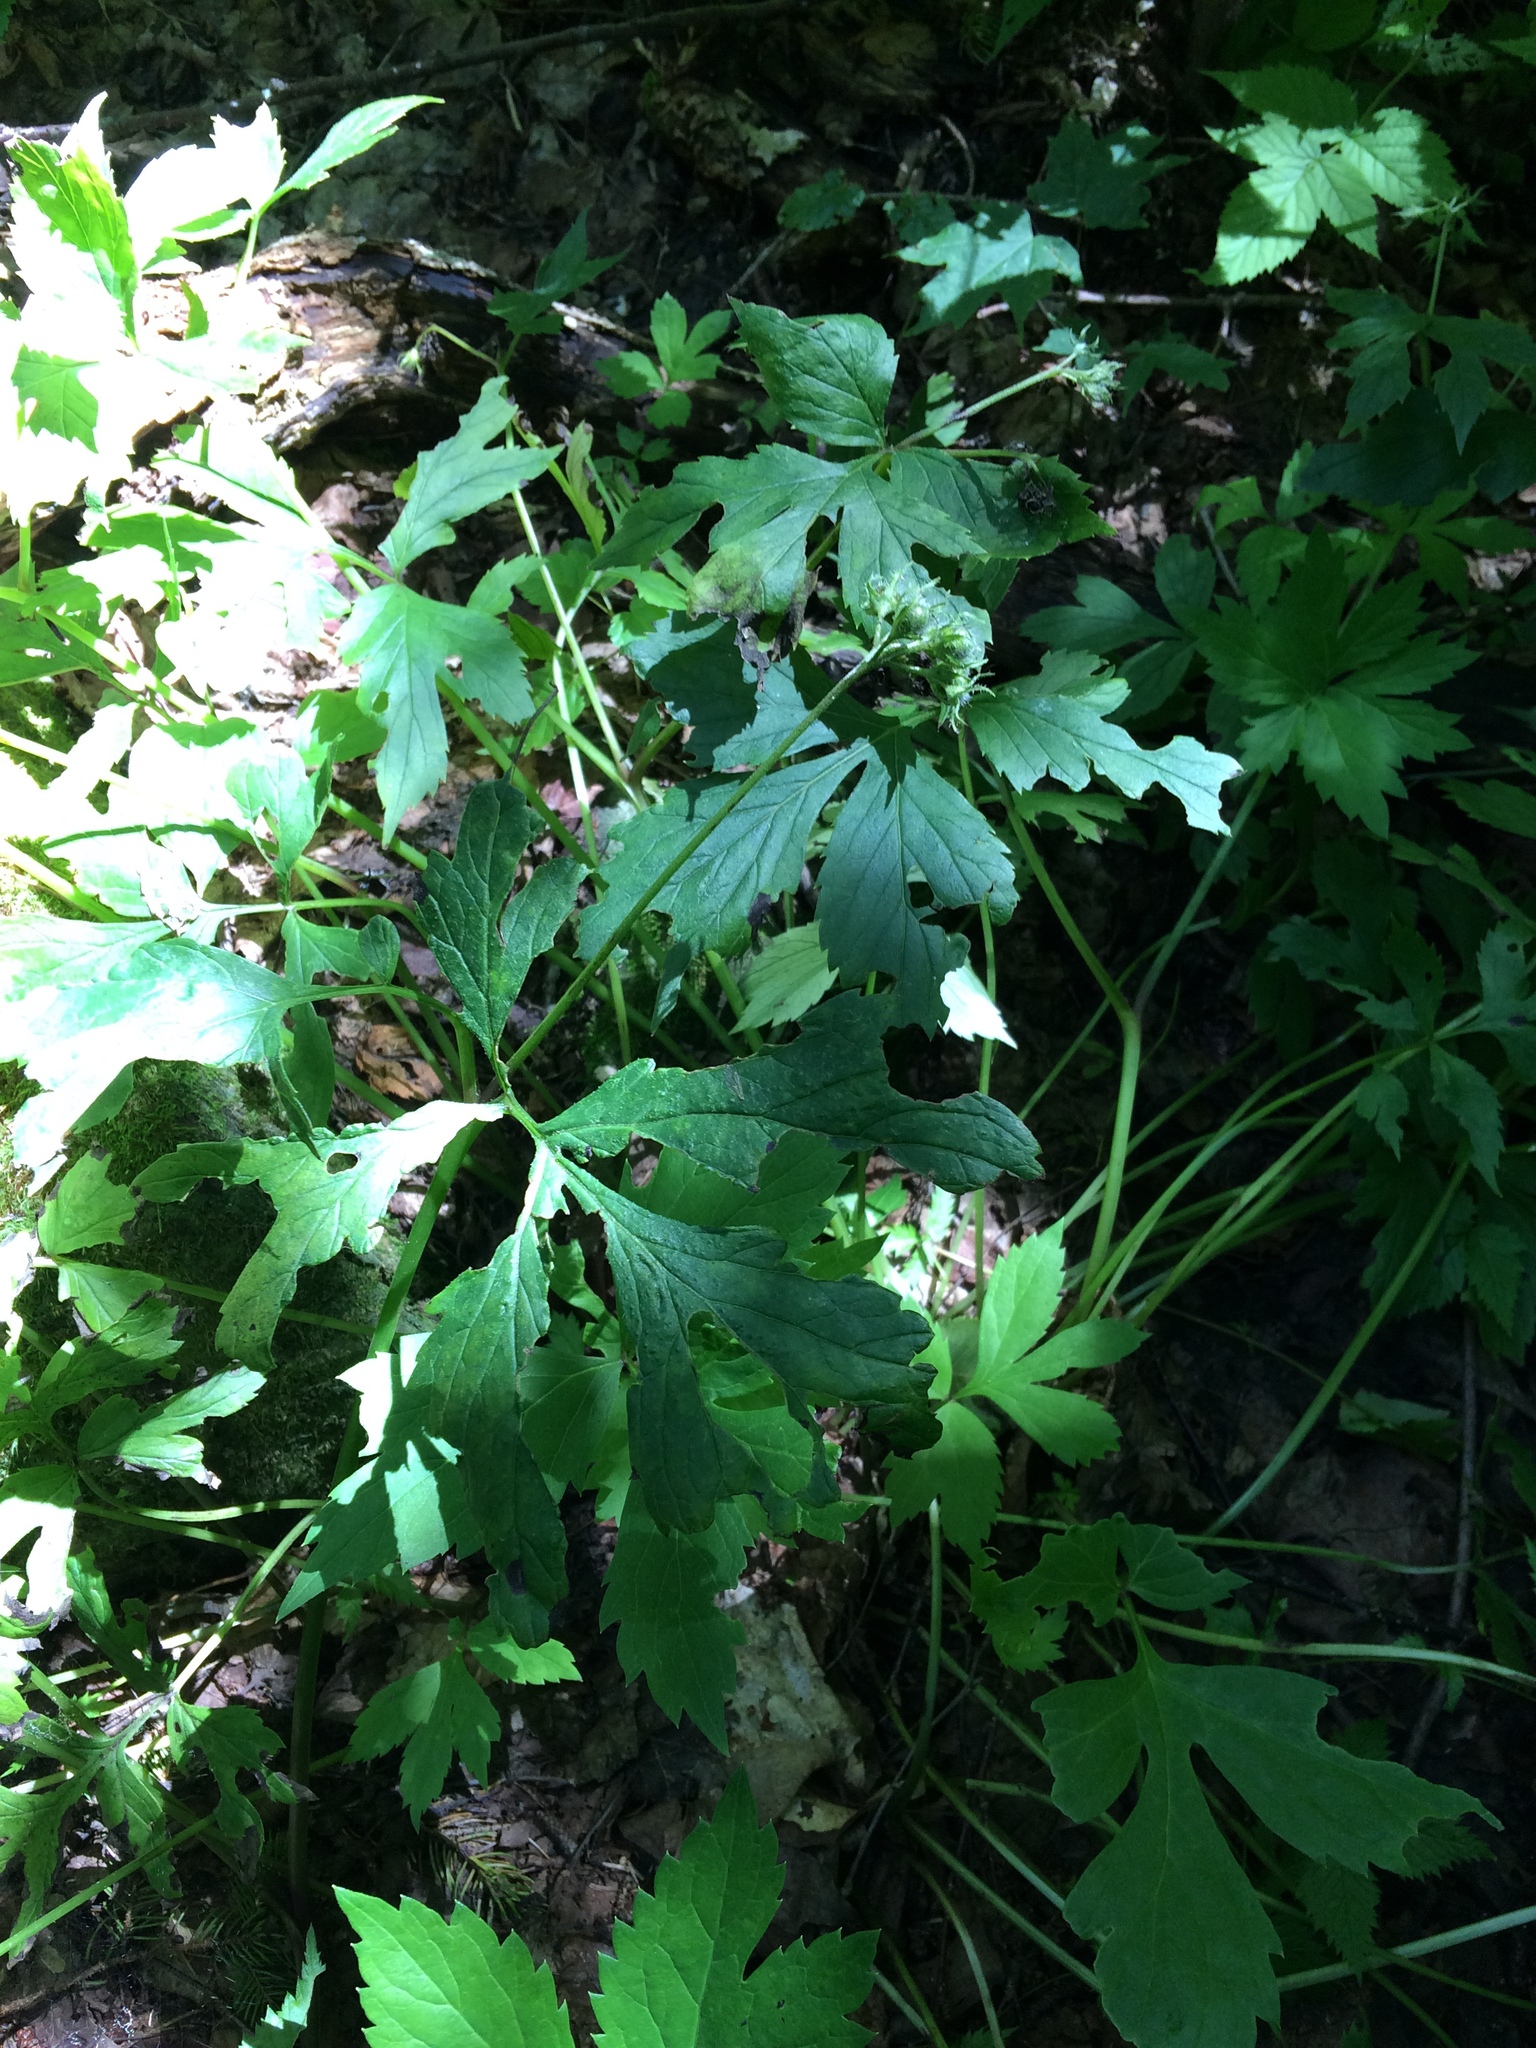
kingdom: Plantae
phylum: Tracheophyta
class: Magnoliopsida
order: Boraginales
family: Hydrophyllaceae
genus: Hydrophyllum
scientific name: Hydrophyllum virginianum
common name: Virginia waterleaf
